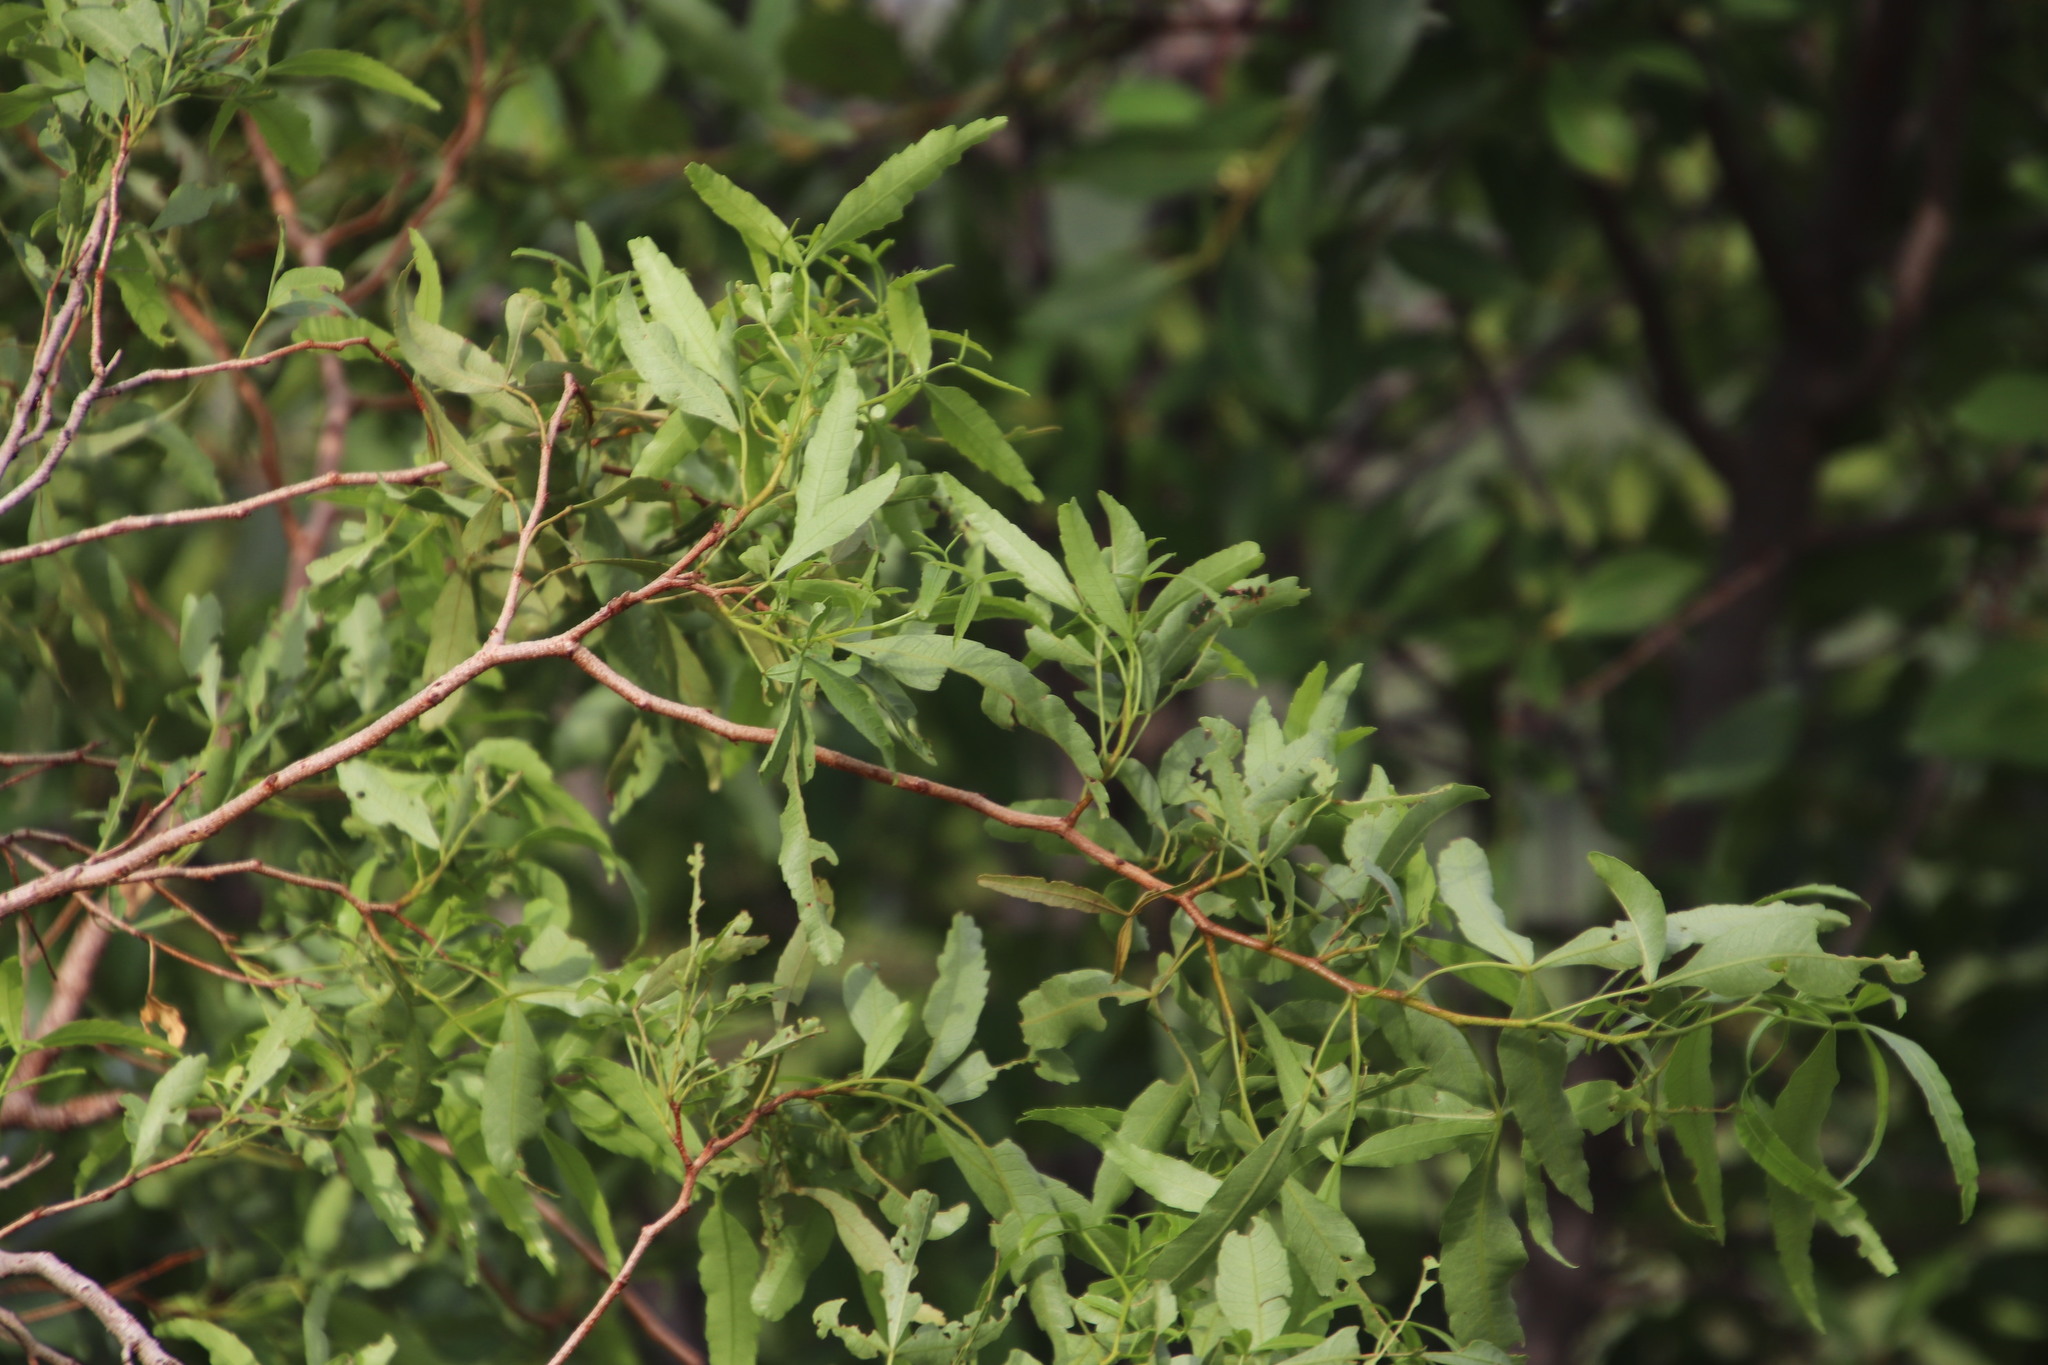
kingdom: Plantae
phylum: Tracheophyta
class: Magnoliopsida
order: Sapindales
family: Anacardiaceae
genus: Searsia
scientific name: Searsia leptodictya
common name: Mountain karee
